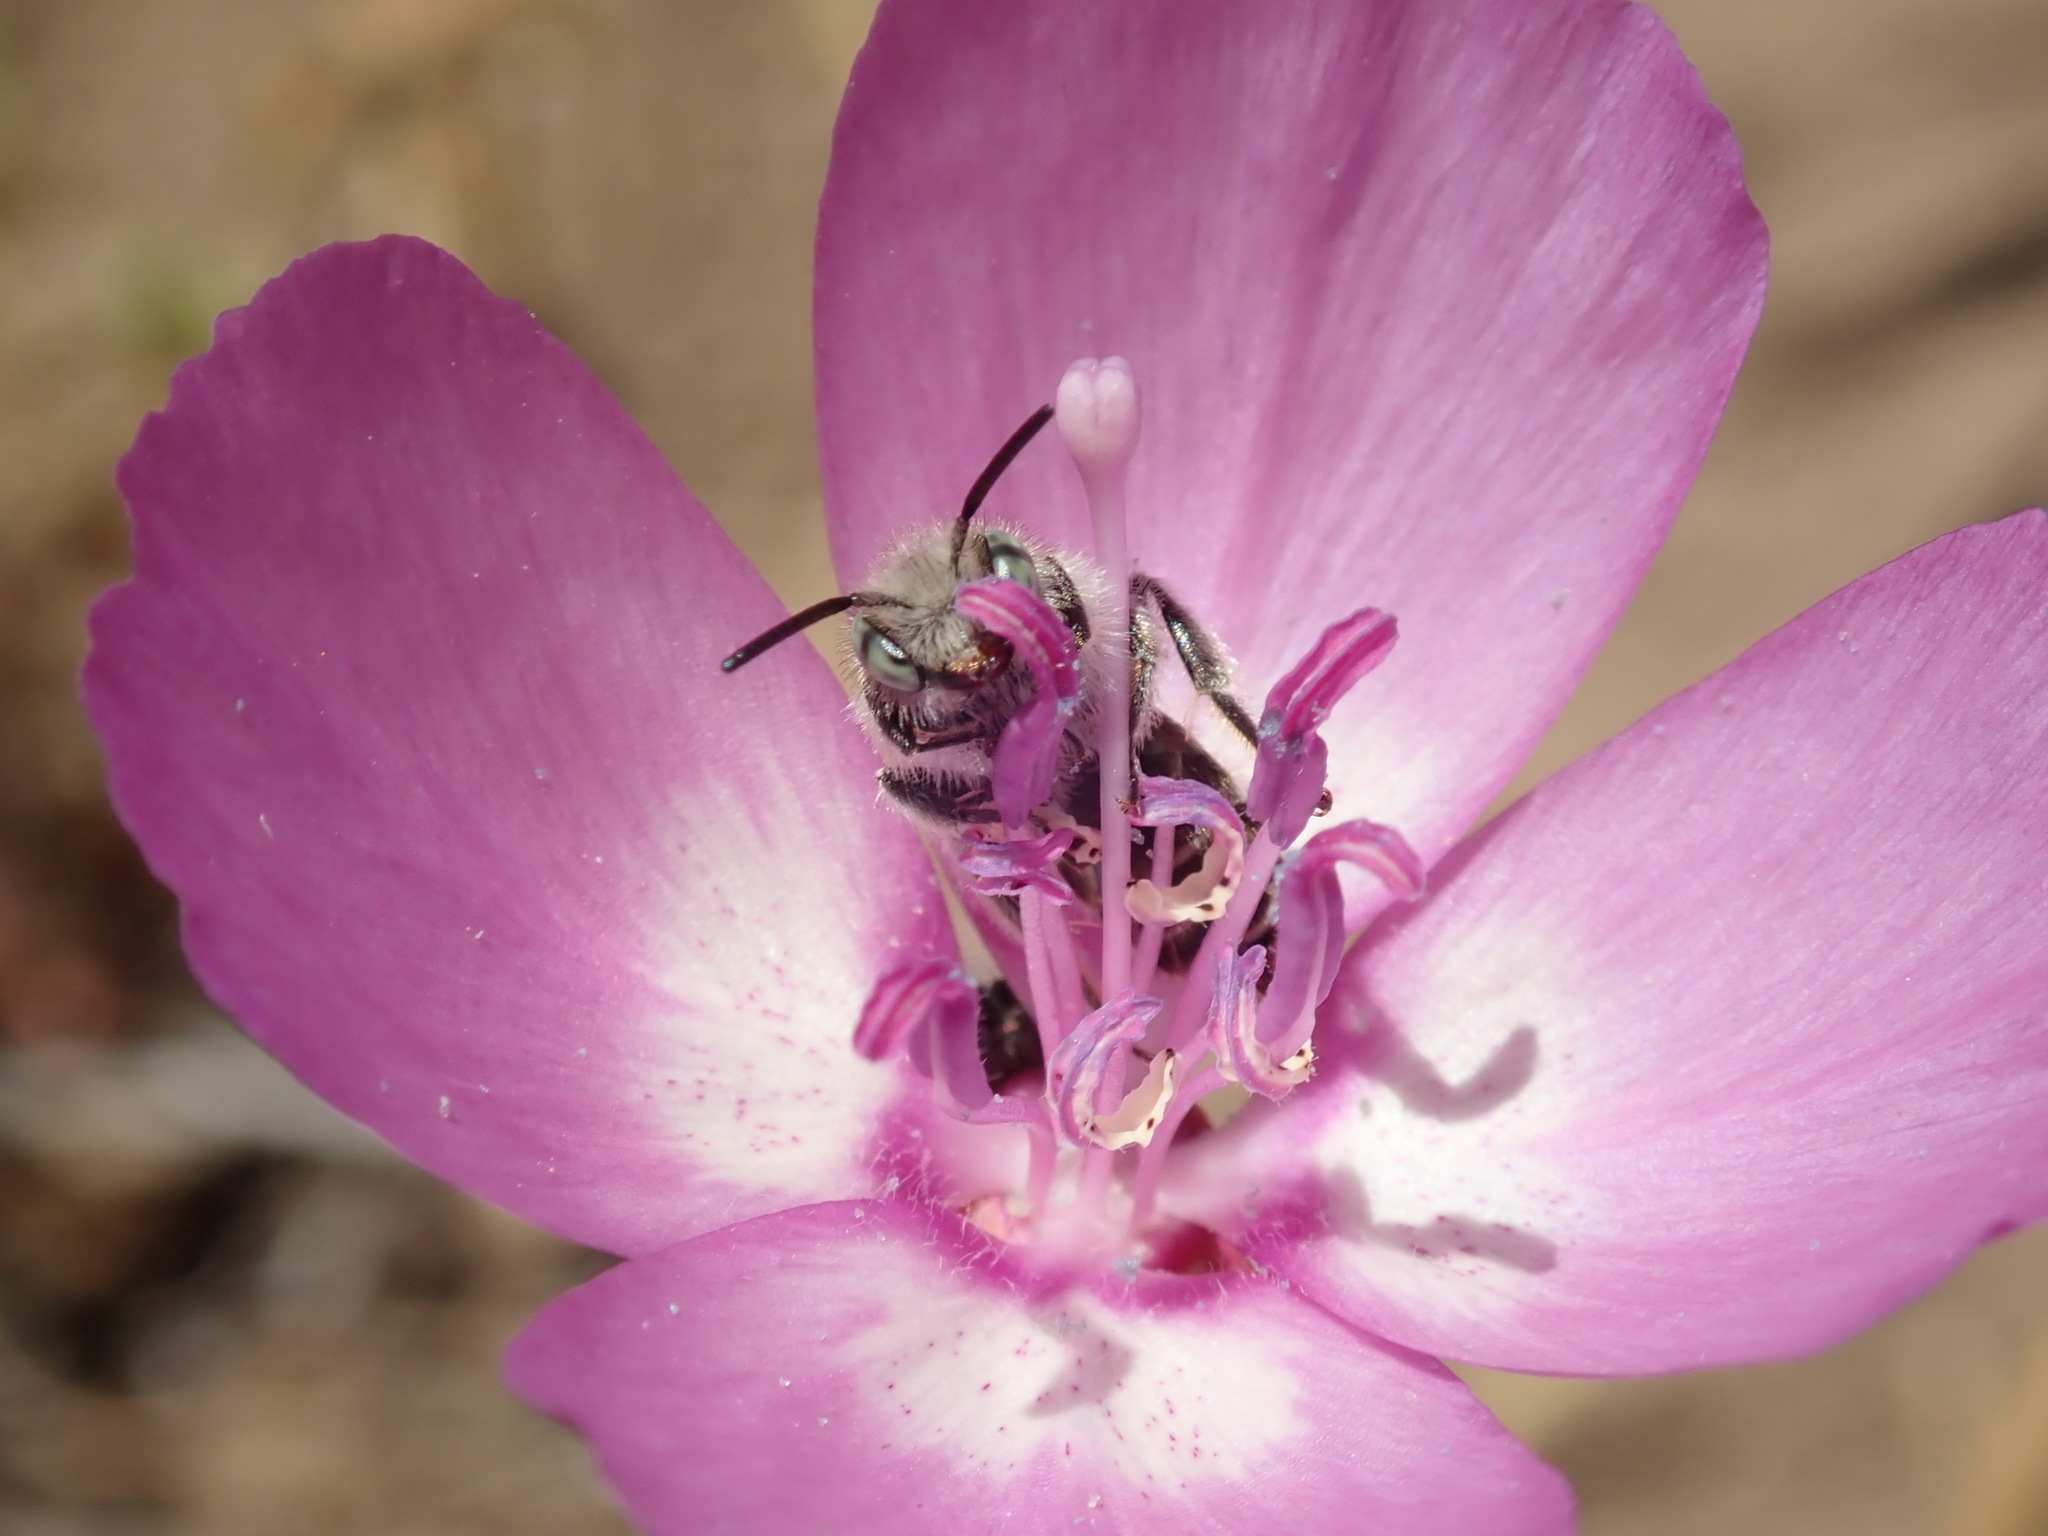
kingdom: Animalia
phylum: Arthropoda
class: Insecta
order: Hymenoptera
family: Melittidae
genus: Hesperapis
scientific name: Hesperapis regularis
